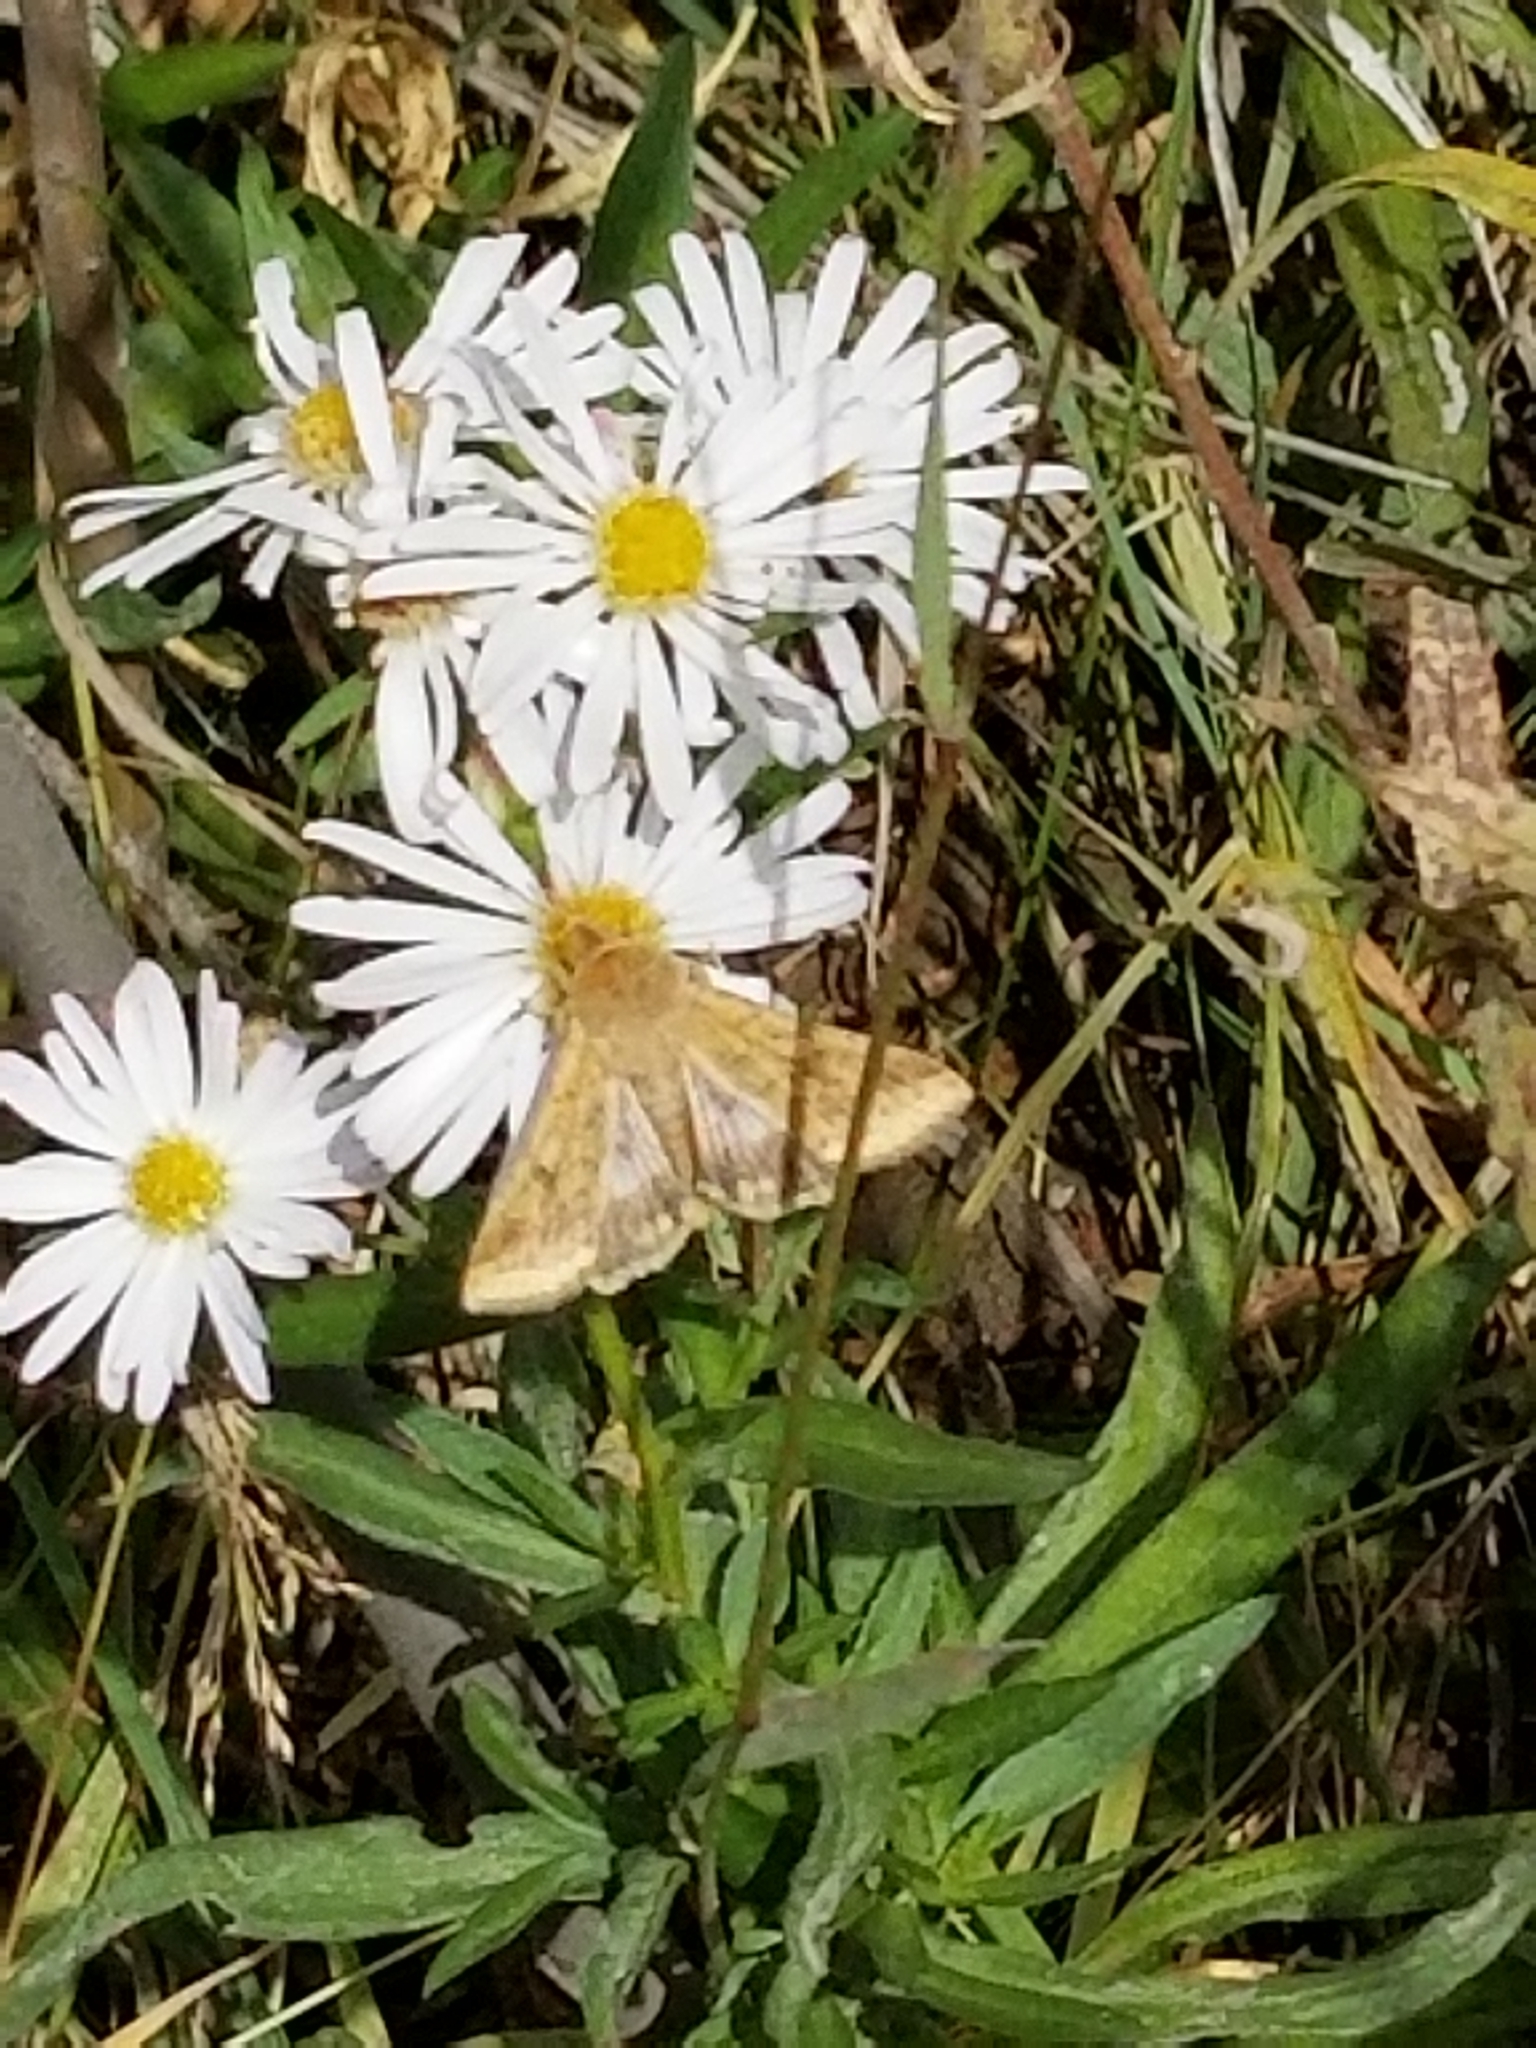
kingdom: Animalia
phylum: Arthropoda
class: Insecta
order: Lepidoptera
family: Noctuidae
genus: Helicoverpa
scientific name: Helicoverpa zea
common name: Bollworm
